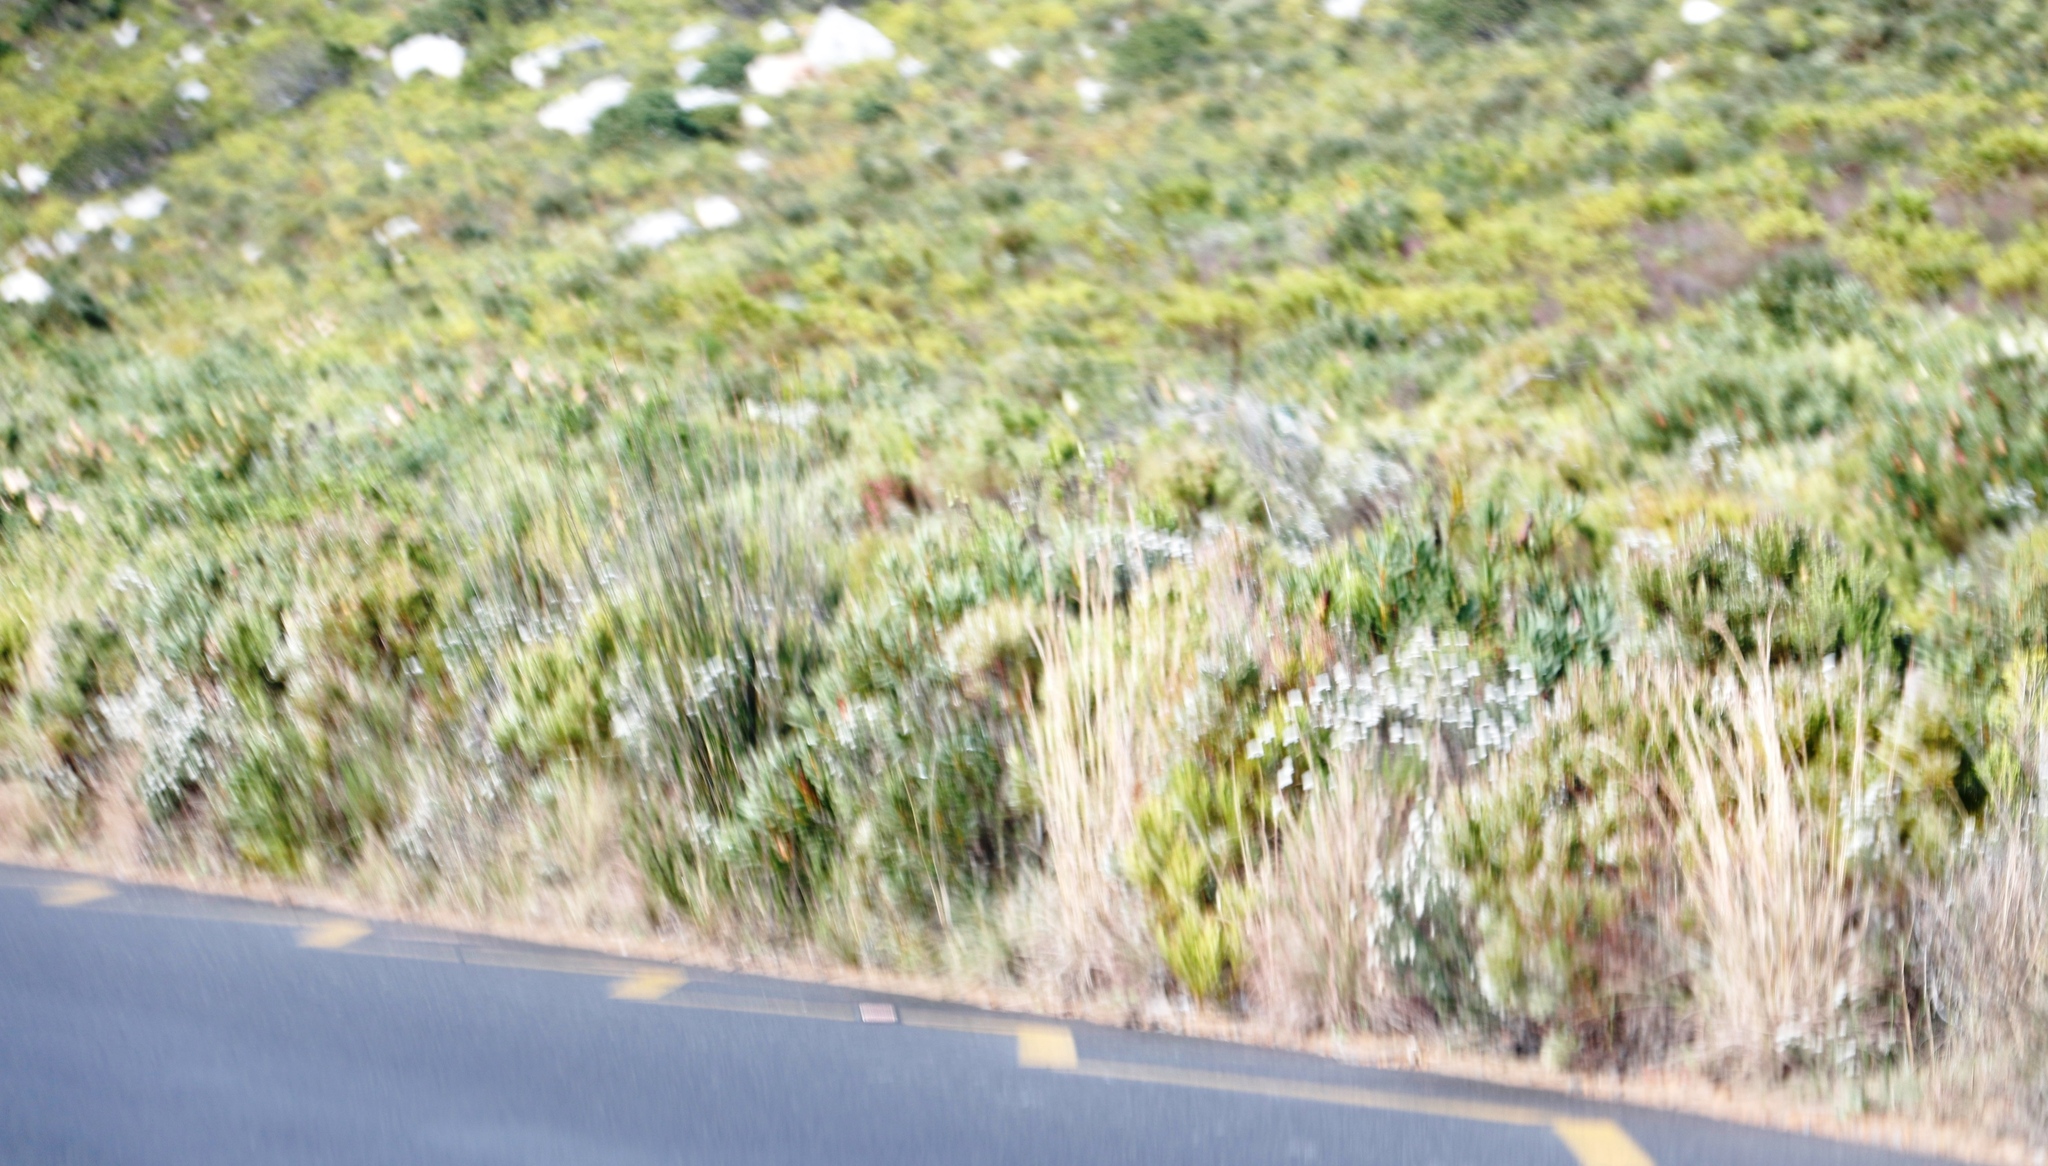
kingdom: Plantae
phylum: Tracheophyta
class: Liliopsida
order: Poales
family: Poaceae
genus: Hyparrhenia
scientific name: Hyparrhenia hirta
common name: Thatching grass
